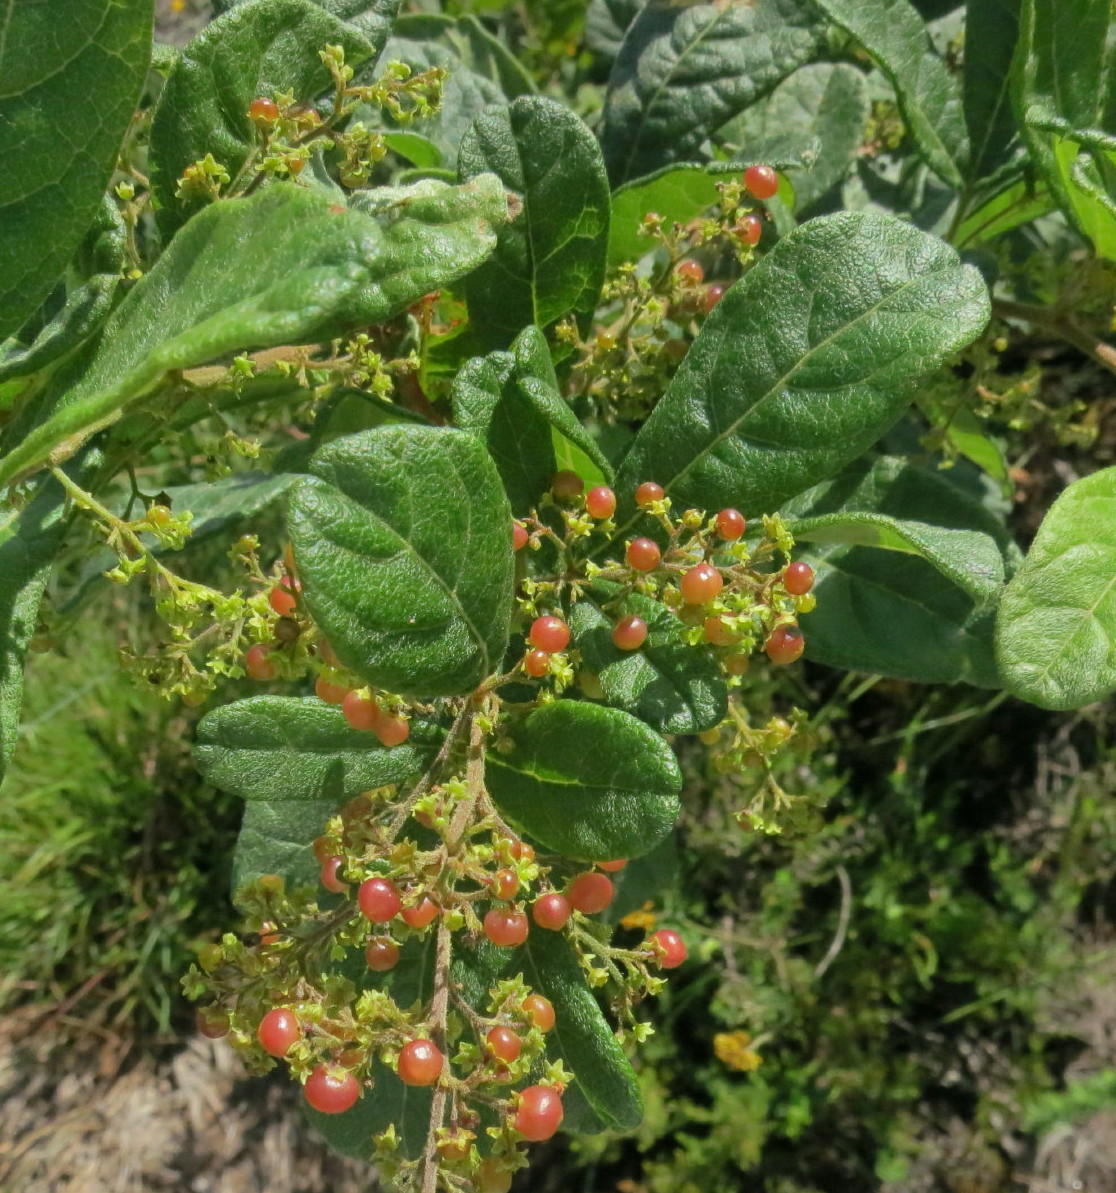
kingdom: Plantae
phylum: Tracheophyta
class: Magnoliopsida
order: Sapindales
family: Anacardiaceae
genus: Searsia
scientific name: Searsia pyroides
